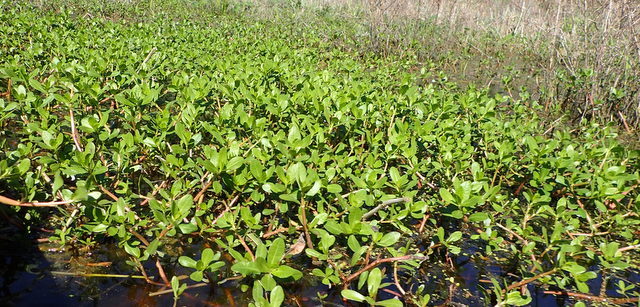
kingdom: Plantae
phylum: Tracheophyta
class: Magnoliopsida
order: Caryophyllales
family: Amaranthaceae
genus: Alternanthera
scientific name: Alternanthera philoxeroides
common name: Alligatorweed
